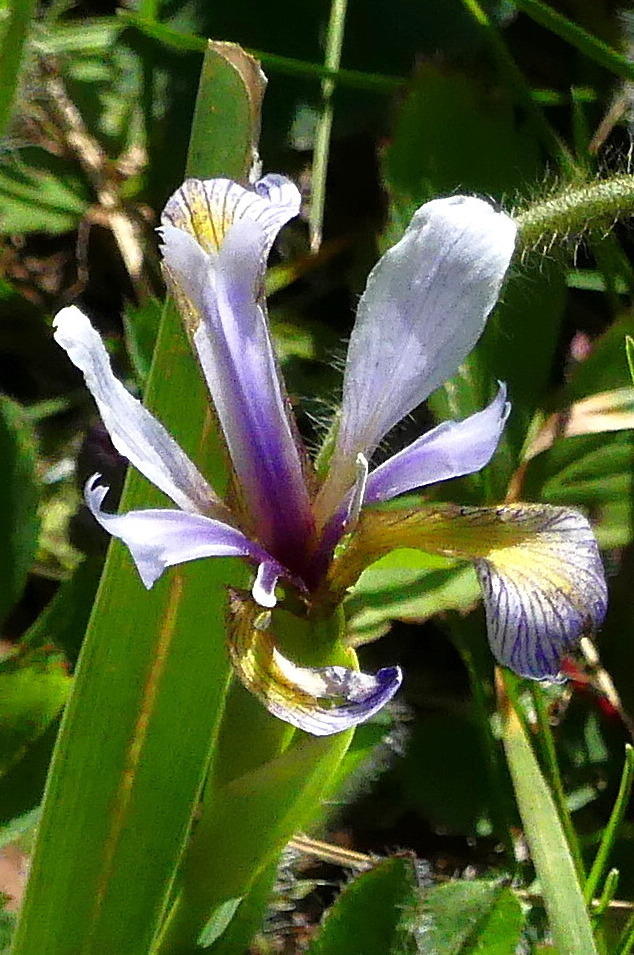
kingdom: Plantae
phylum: Tracheophyta
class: Liliopsida
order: Asparagales
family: Iridaceae
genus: Iris
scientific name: Iris versicolor
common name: Purple iris
